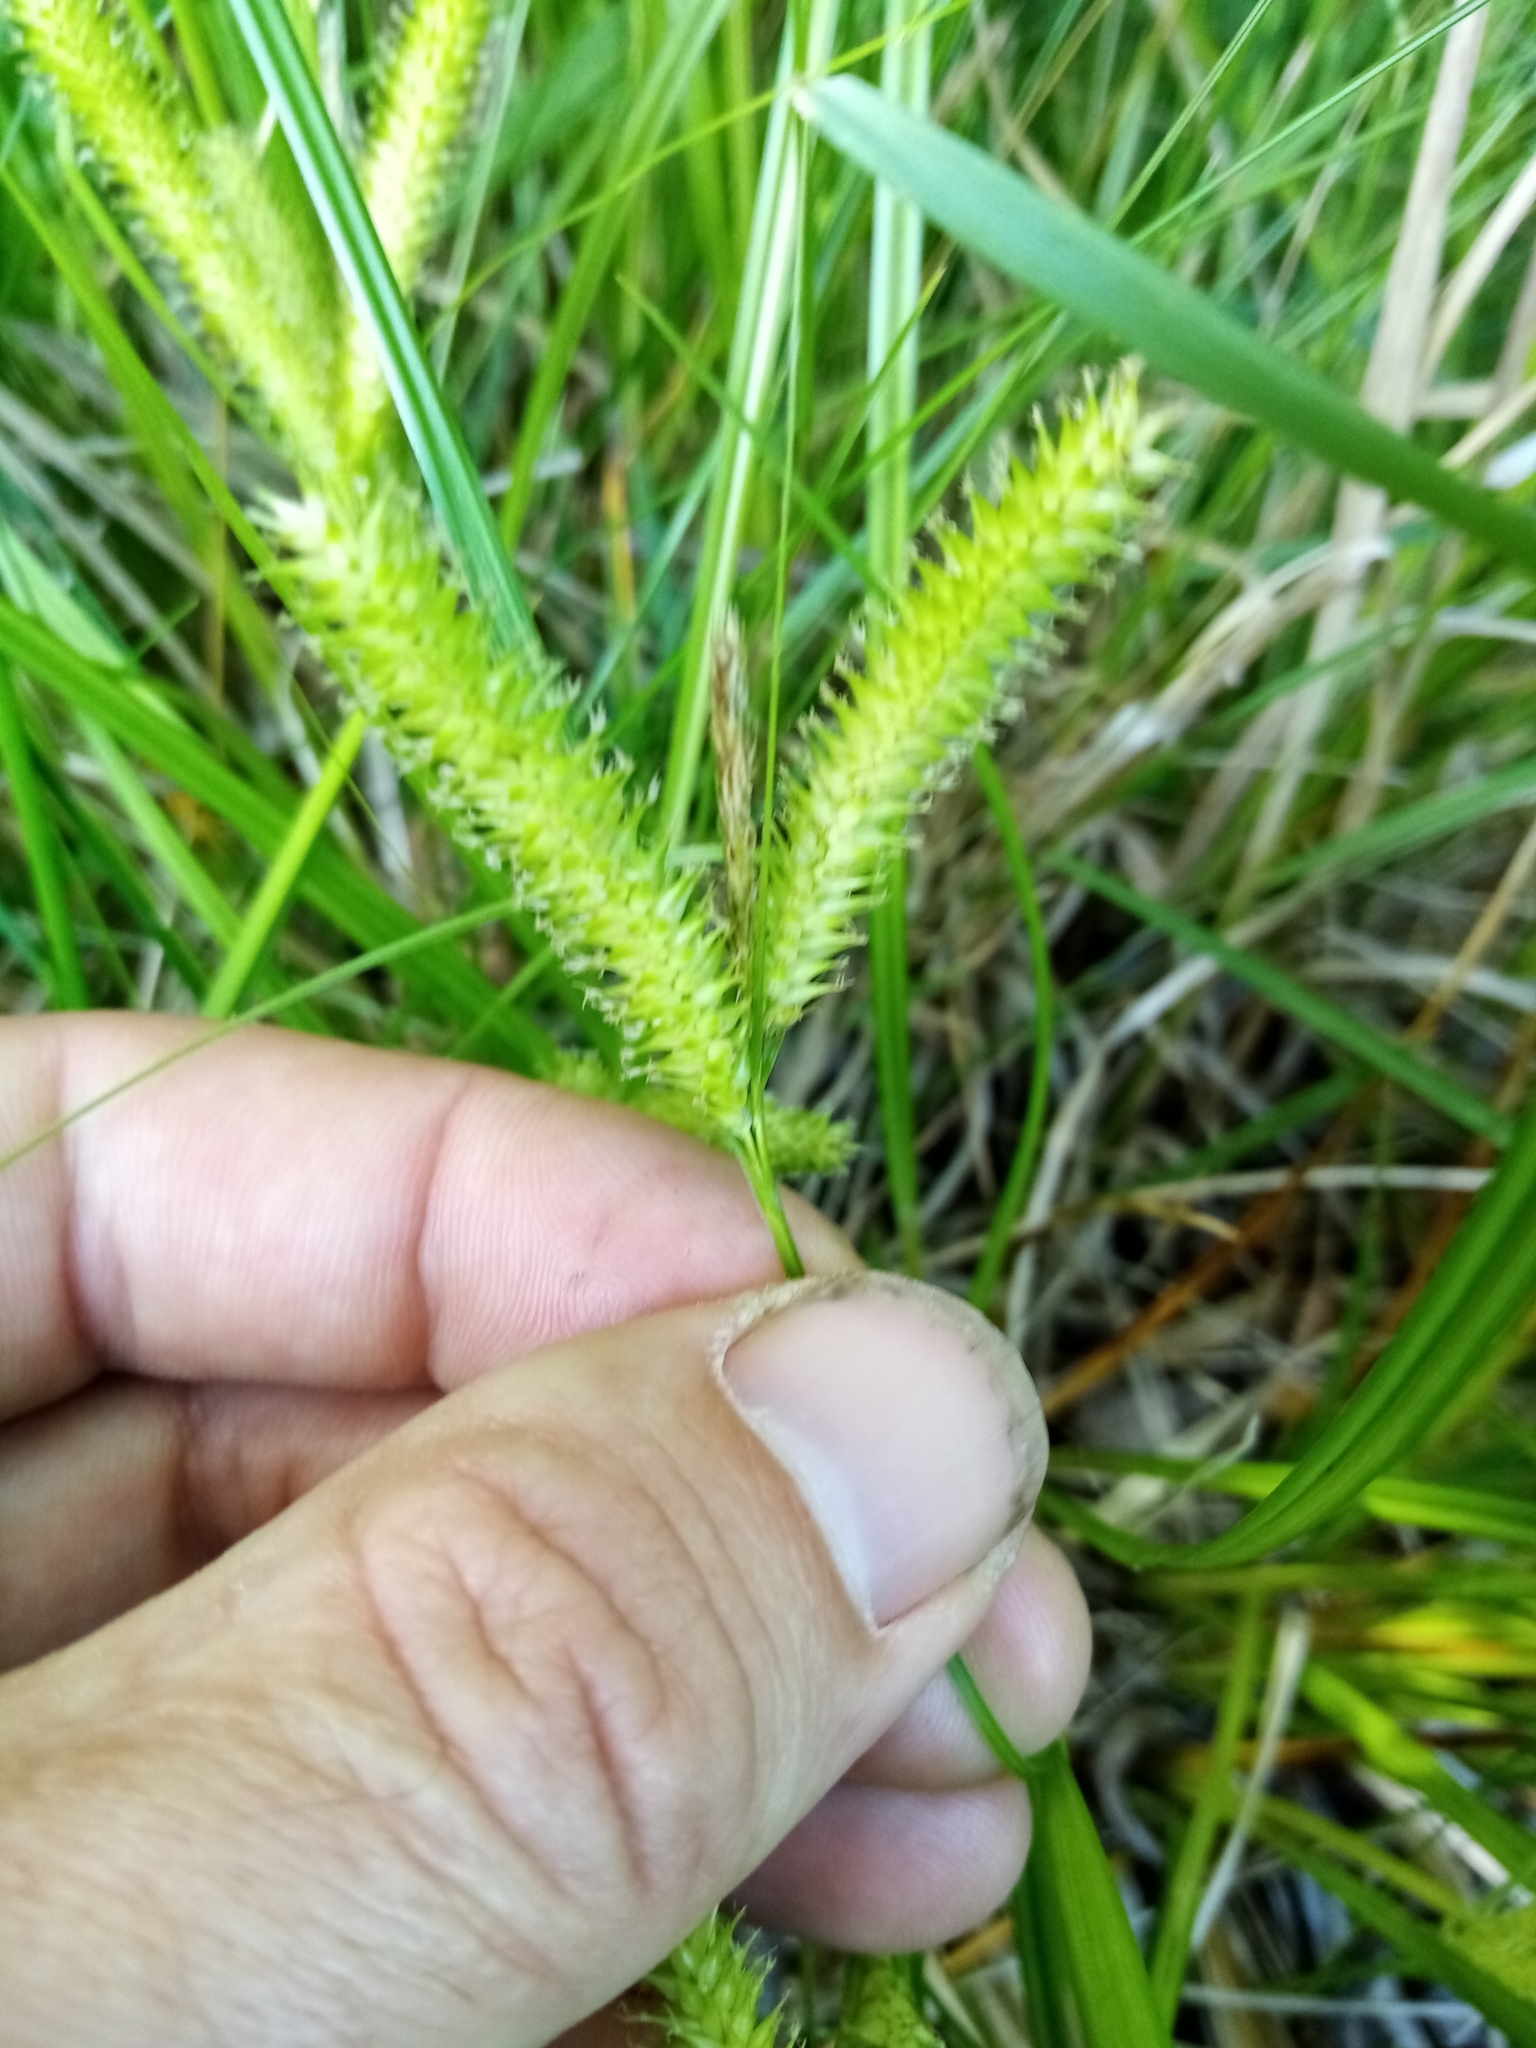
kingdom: Plantae
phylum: Tracheophyta
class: Liliopsida
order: Poales
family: Cyperaceae
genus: Carex
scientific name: Carex maorica
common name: Maori sedge
